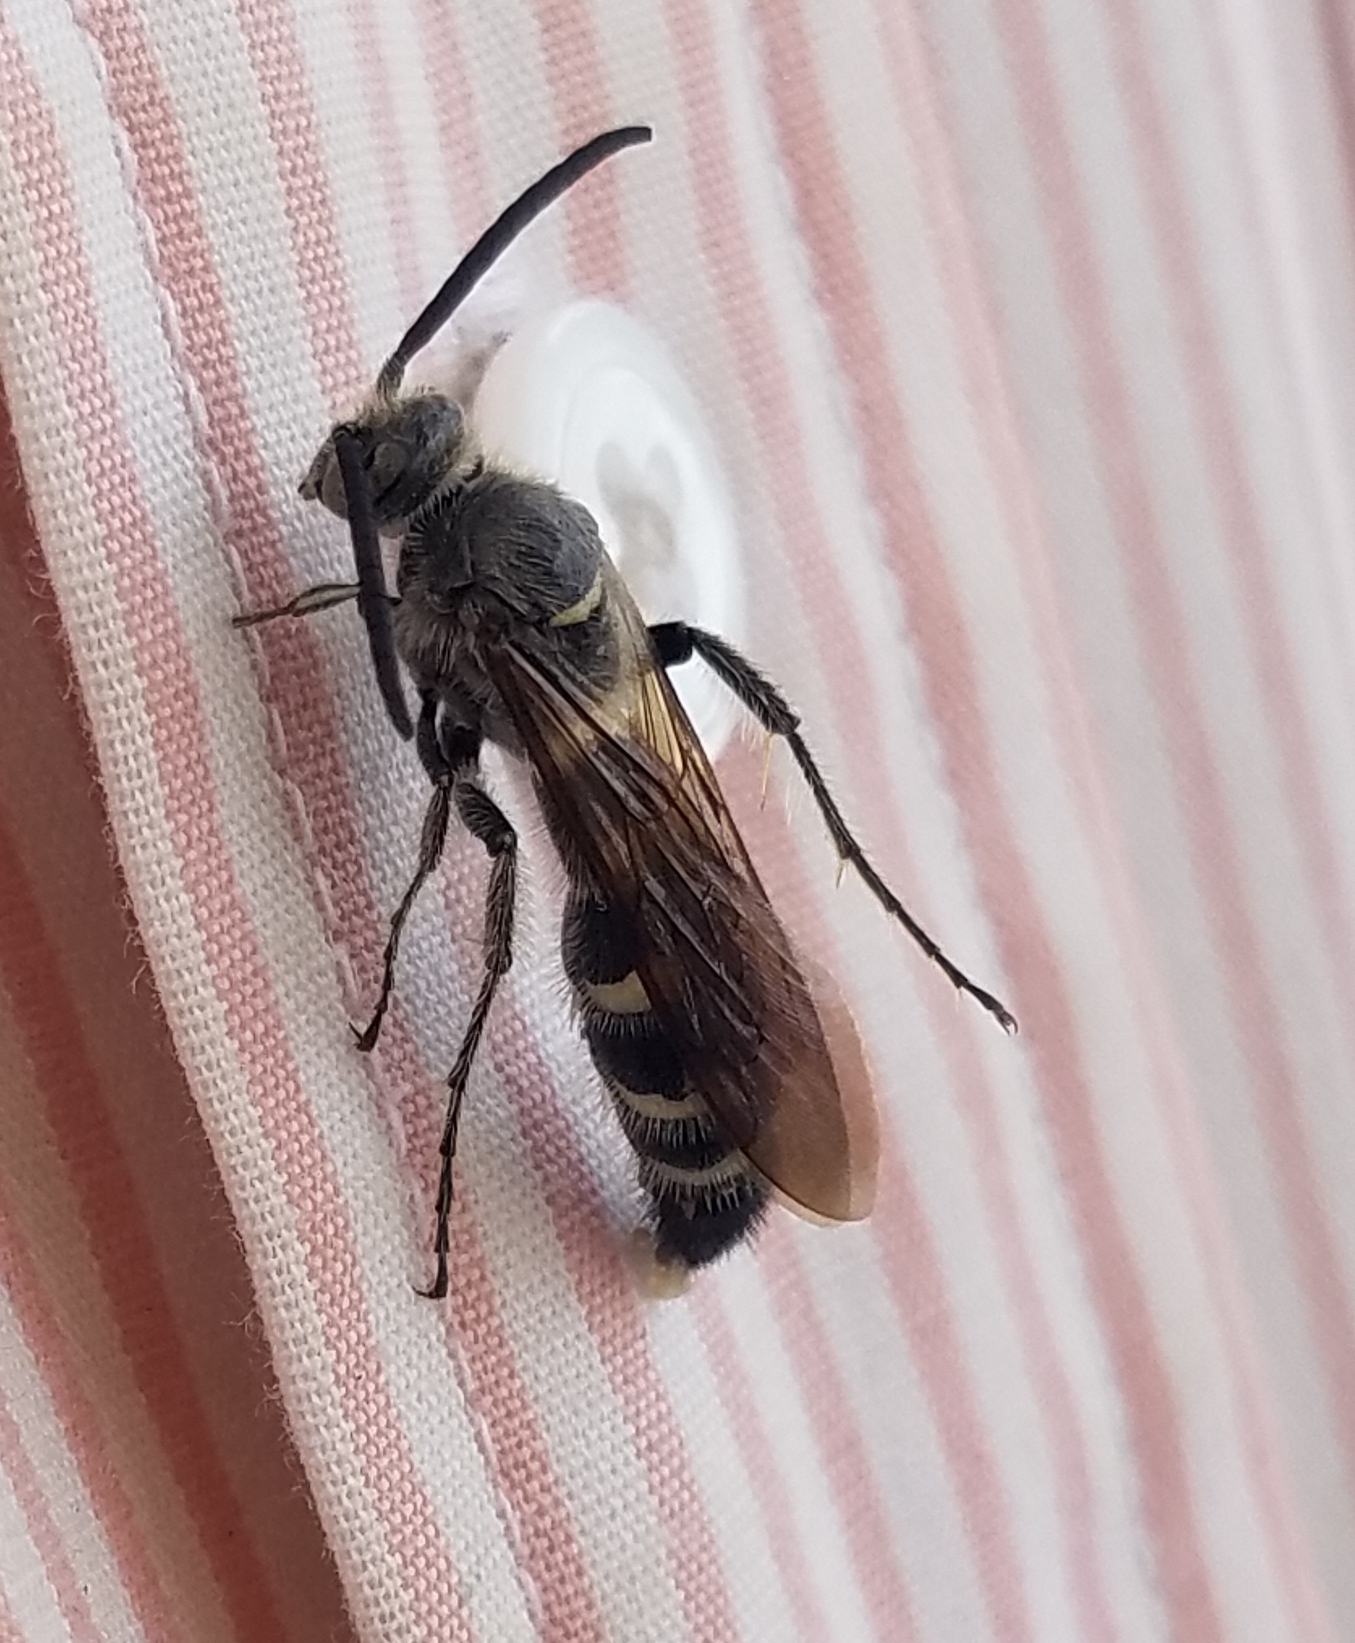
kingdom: Animalia
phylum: Arthropoda
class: Insecta
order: Hymenoptera
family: Scoliidae
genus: Dielis
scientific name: Dielis
